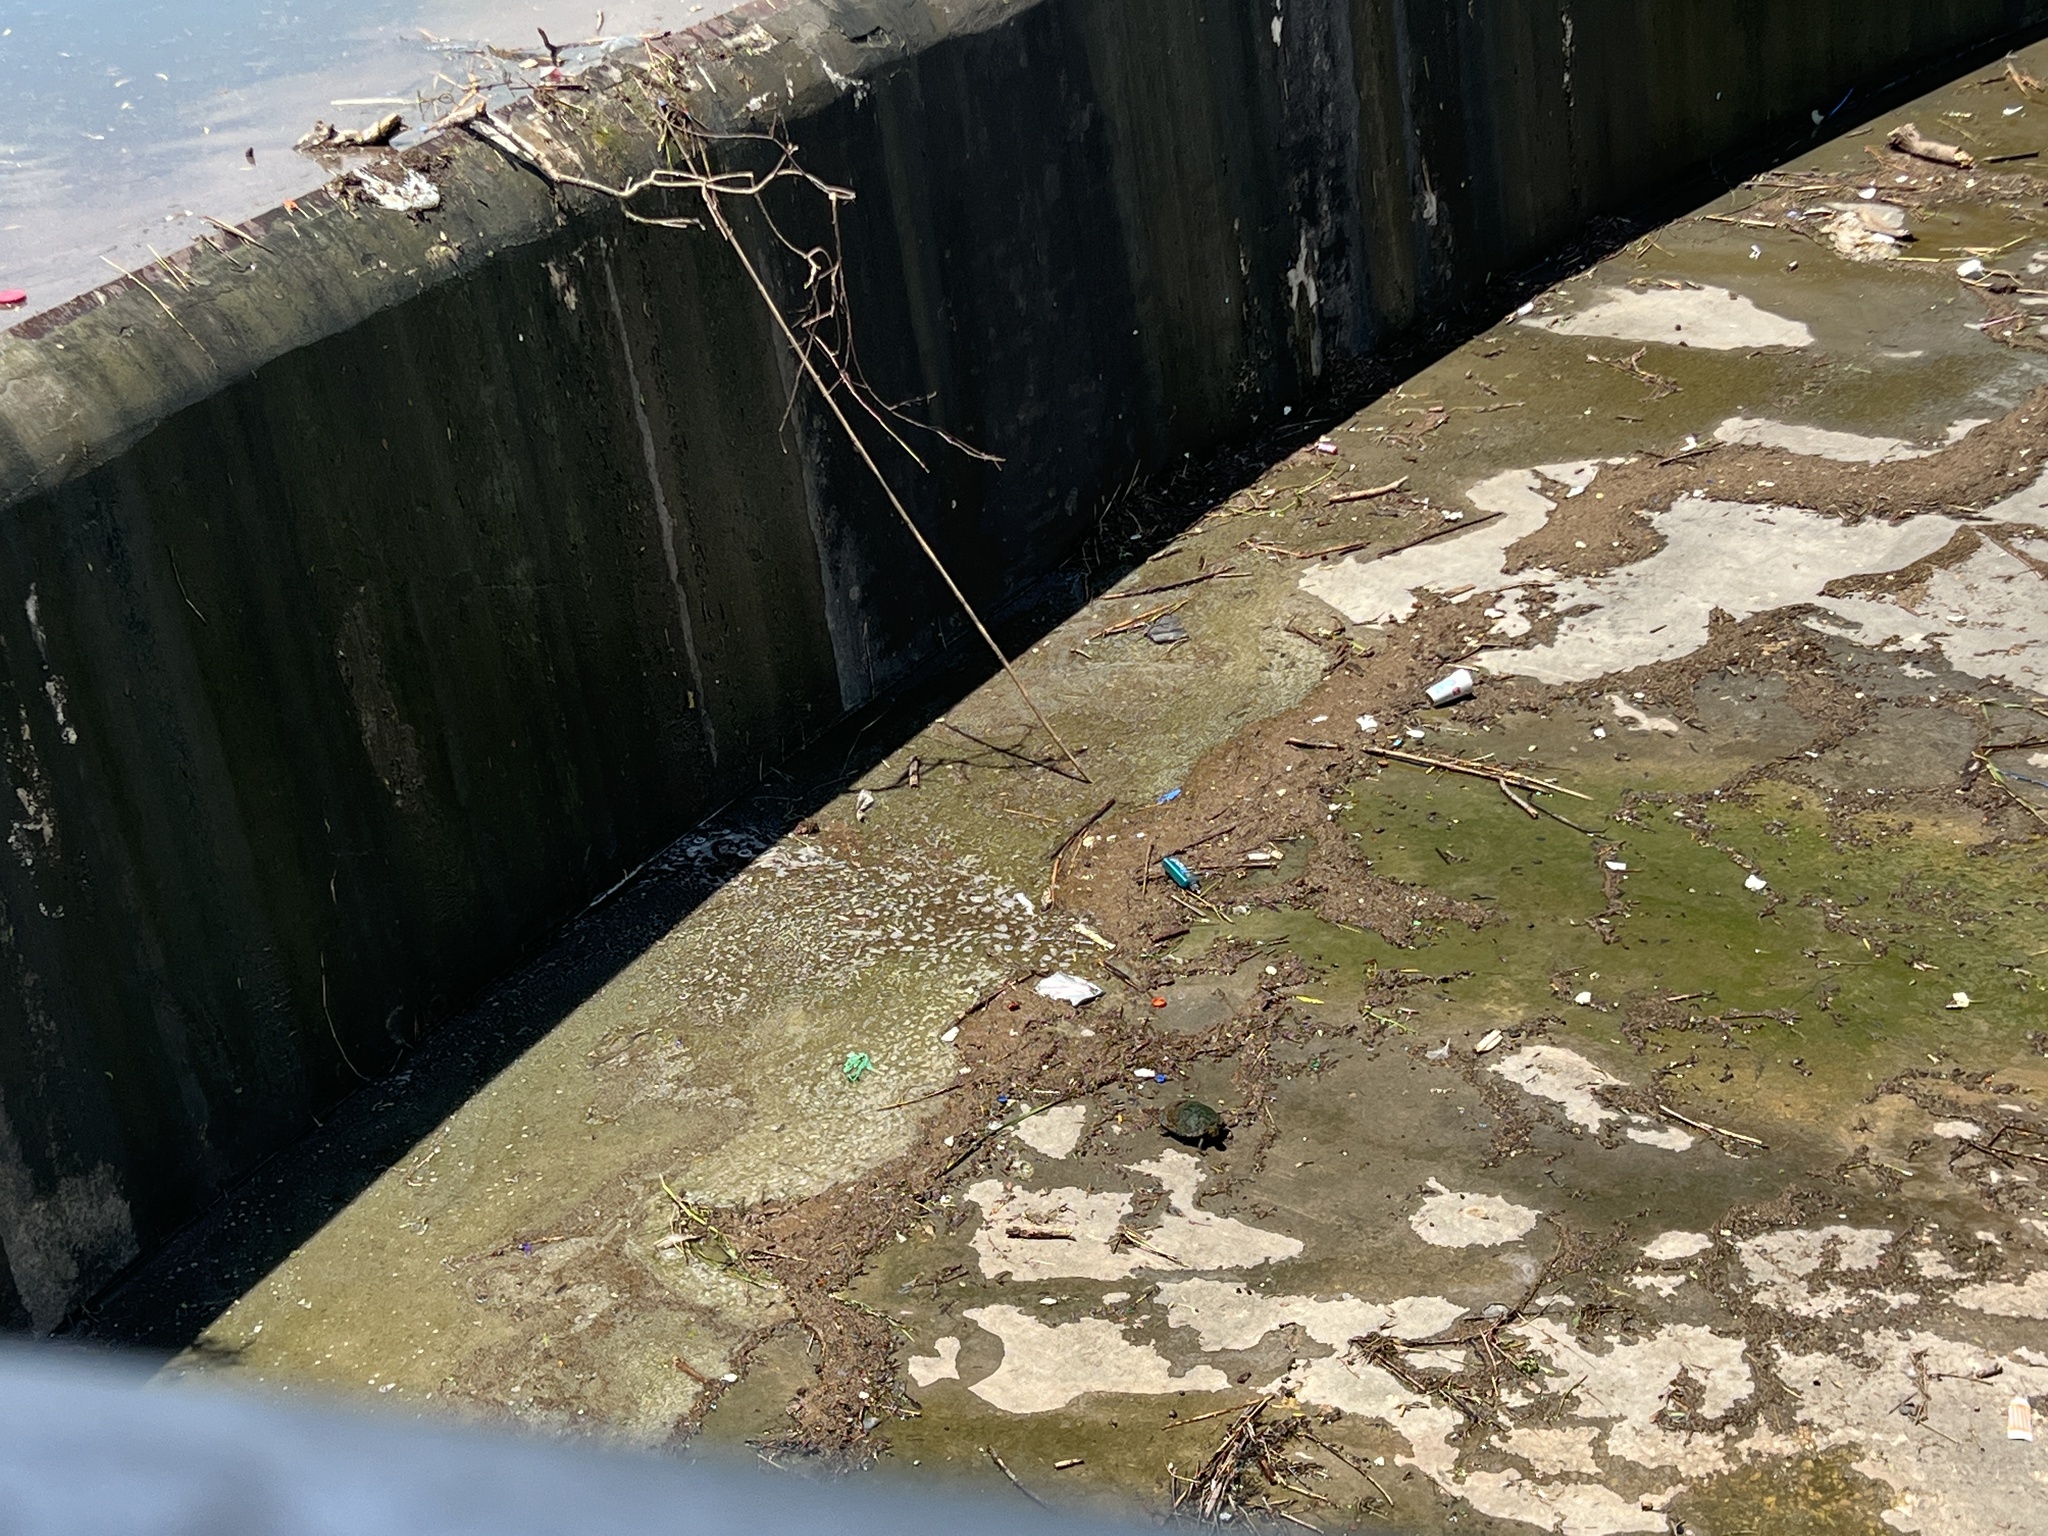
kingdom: Animalia
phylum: Chordata
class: Testudines
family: Emydidae
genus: Trachemys
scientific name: Trachemys scripta
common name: Slider
